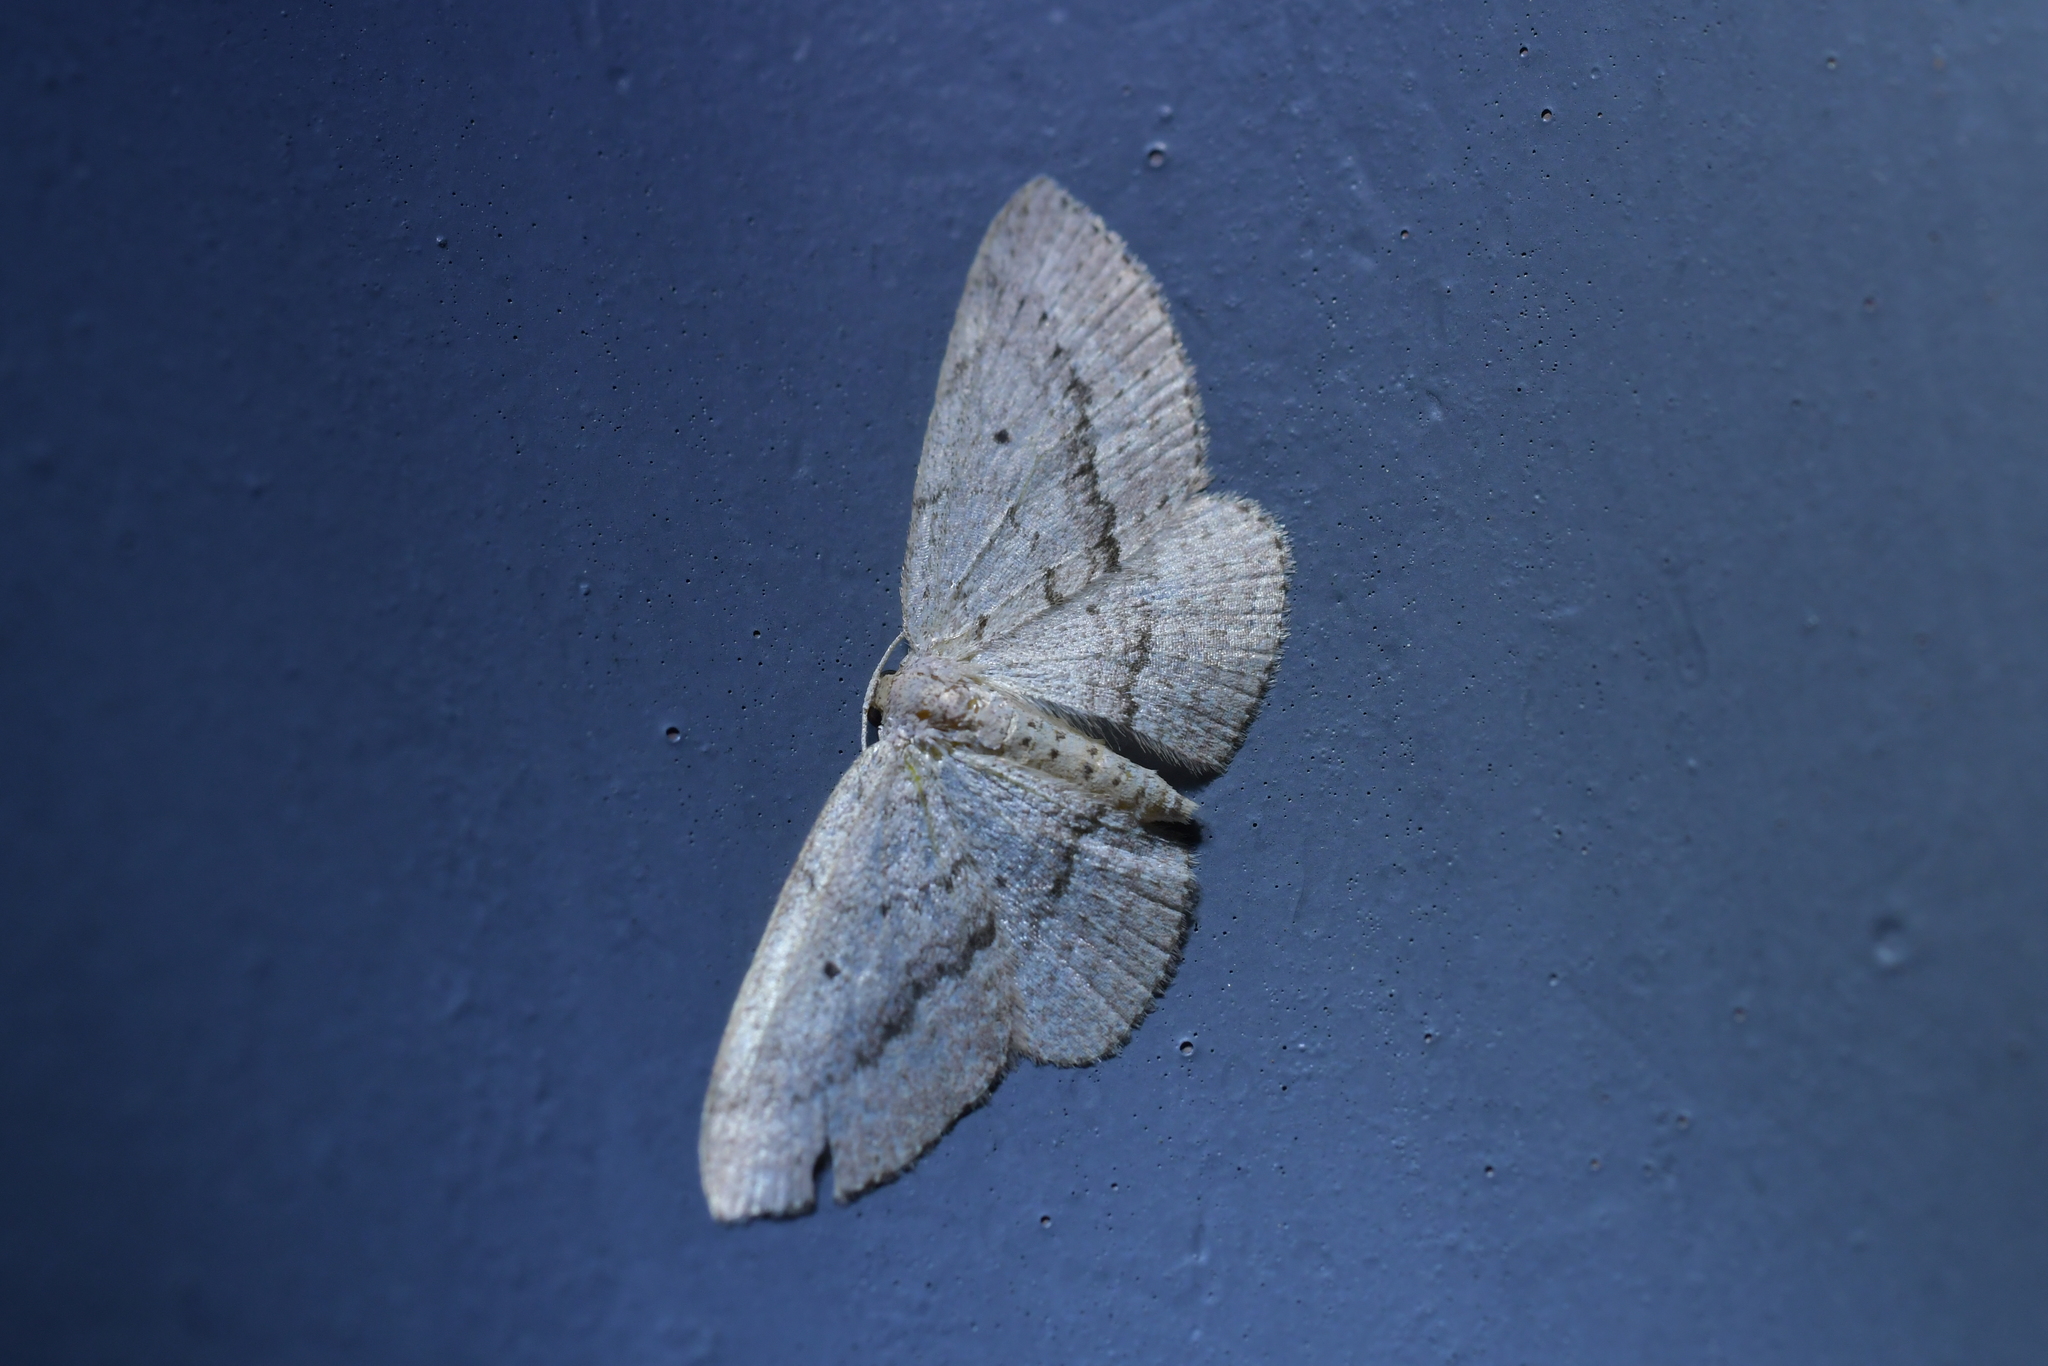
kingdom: Animalia
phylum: Arthropoda
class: Insecta
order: Lepidoptera
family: Geometridae
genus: Poecilasthena
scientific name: Poecilasthena schistaria
